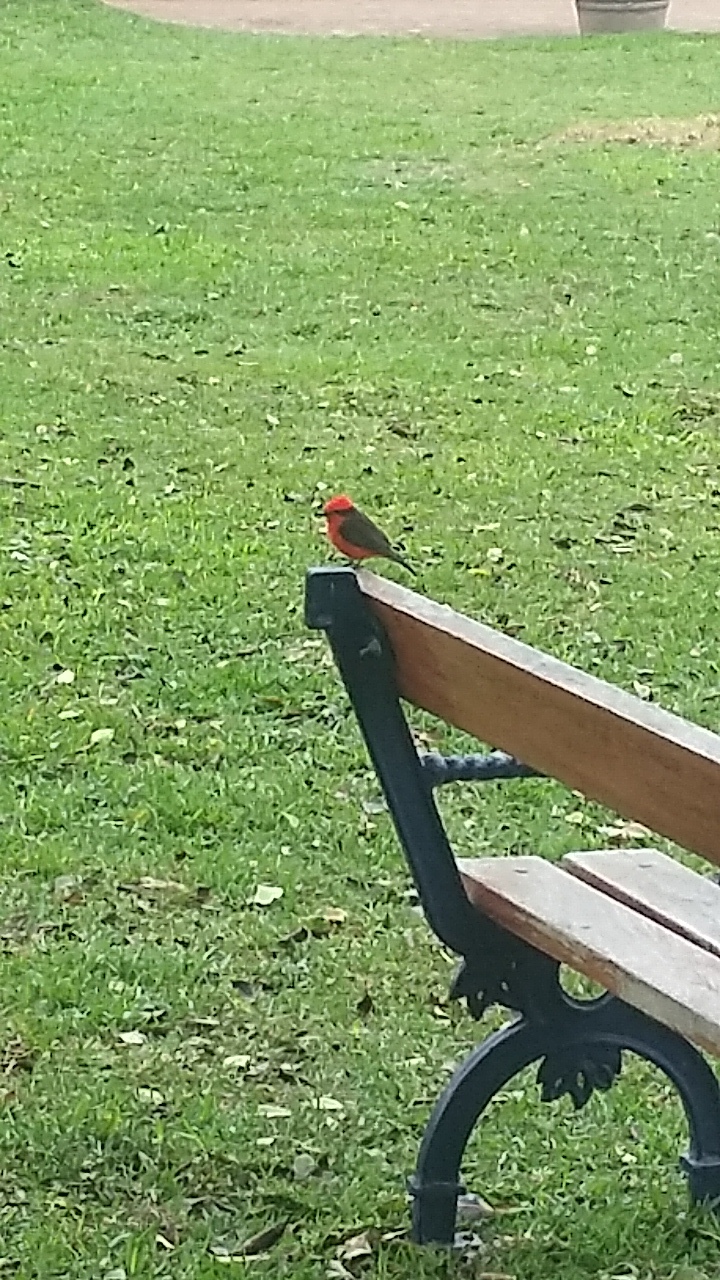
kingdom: Animalia
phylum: Chordata
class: Aves
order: Passeriformes
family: Tyrannidae
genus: Pyrocephalus
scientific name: Pyrocephalus rubinus
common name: Vermilion flycatcher
